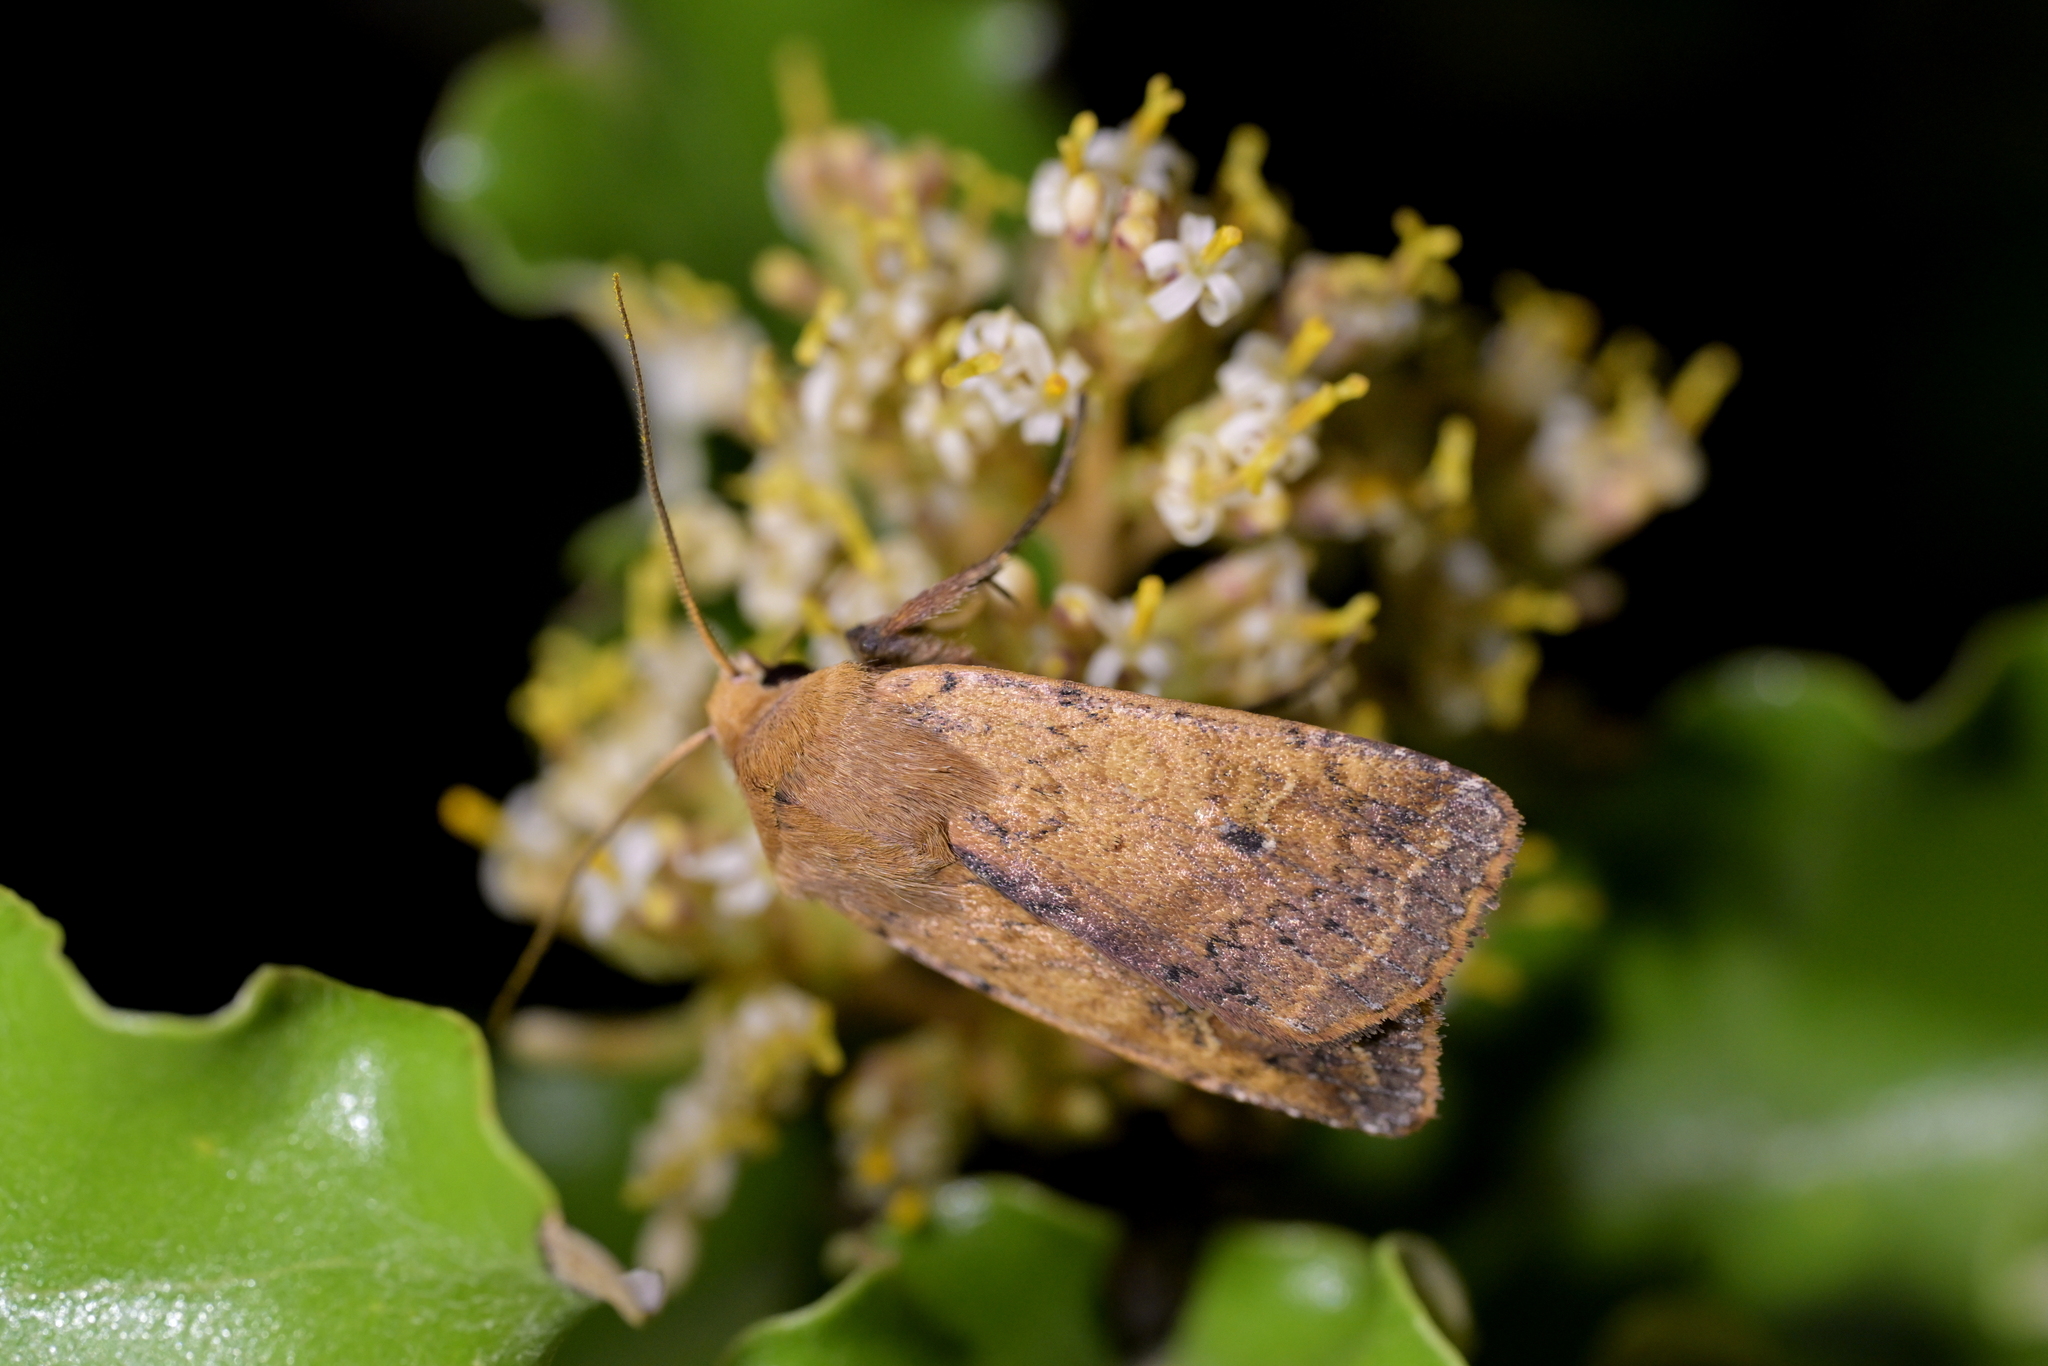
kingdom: Animalia
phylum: Arthropoda
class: Insecta
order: Lepidoptera
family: Noctuidae
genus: Diarsia
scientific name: Diarsia intermixta
